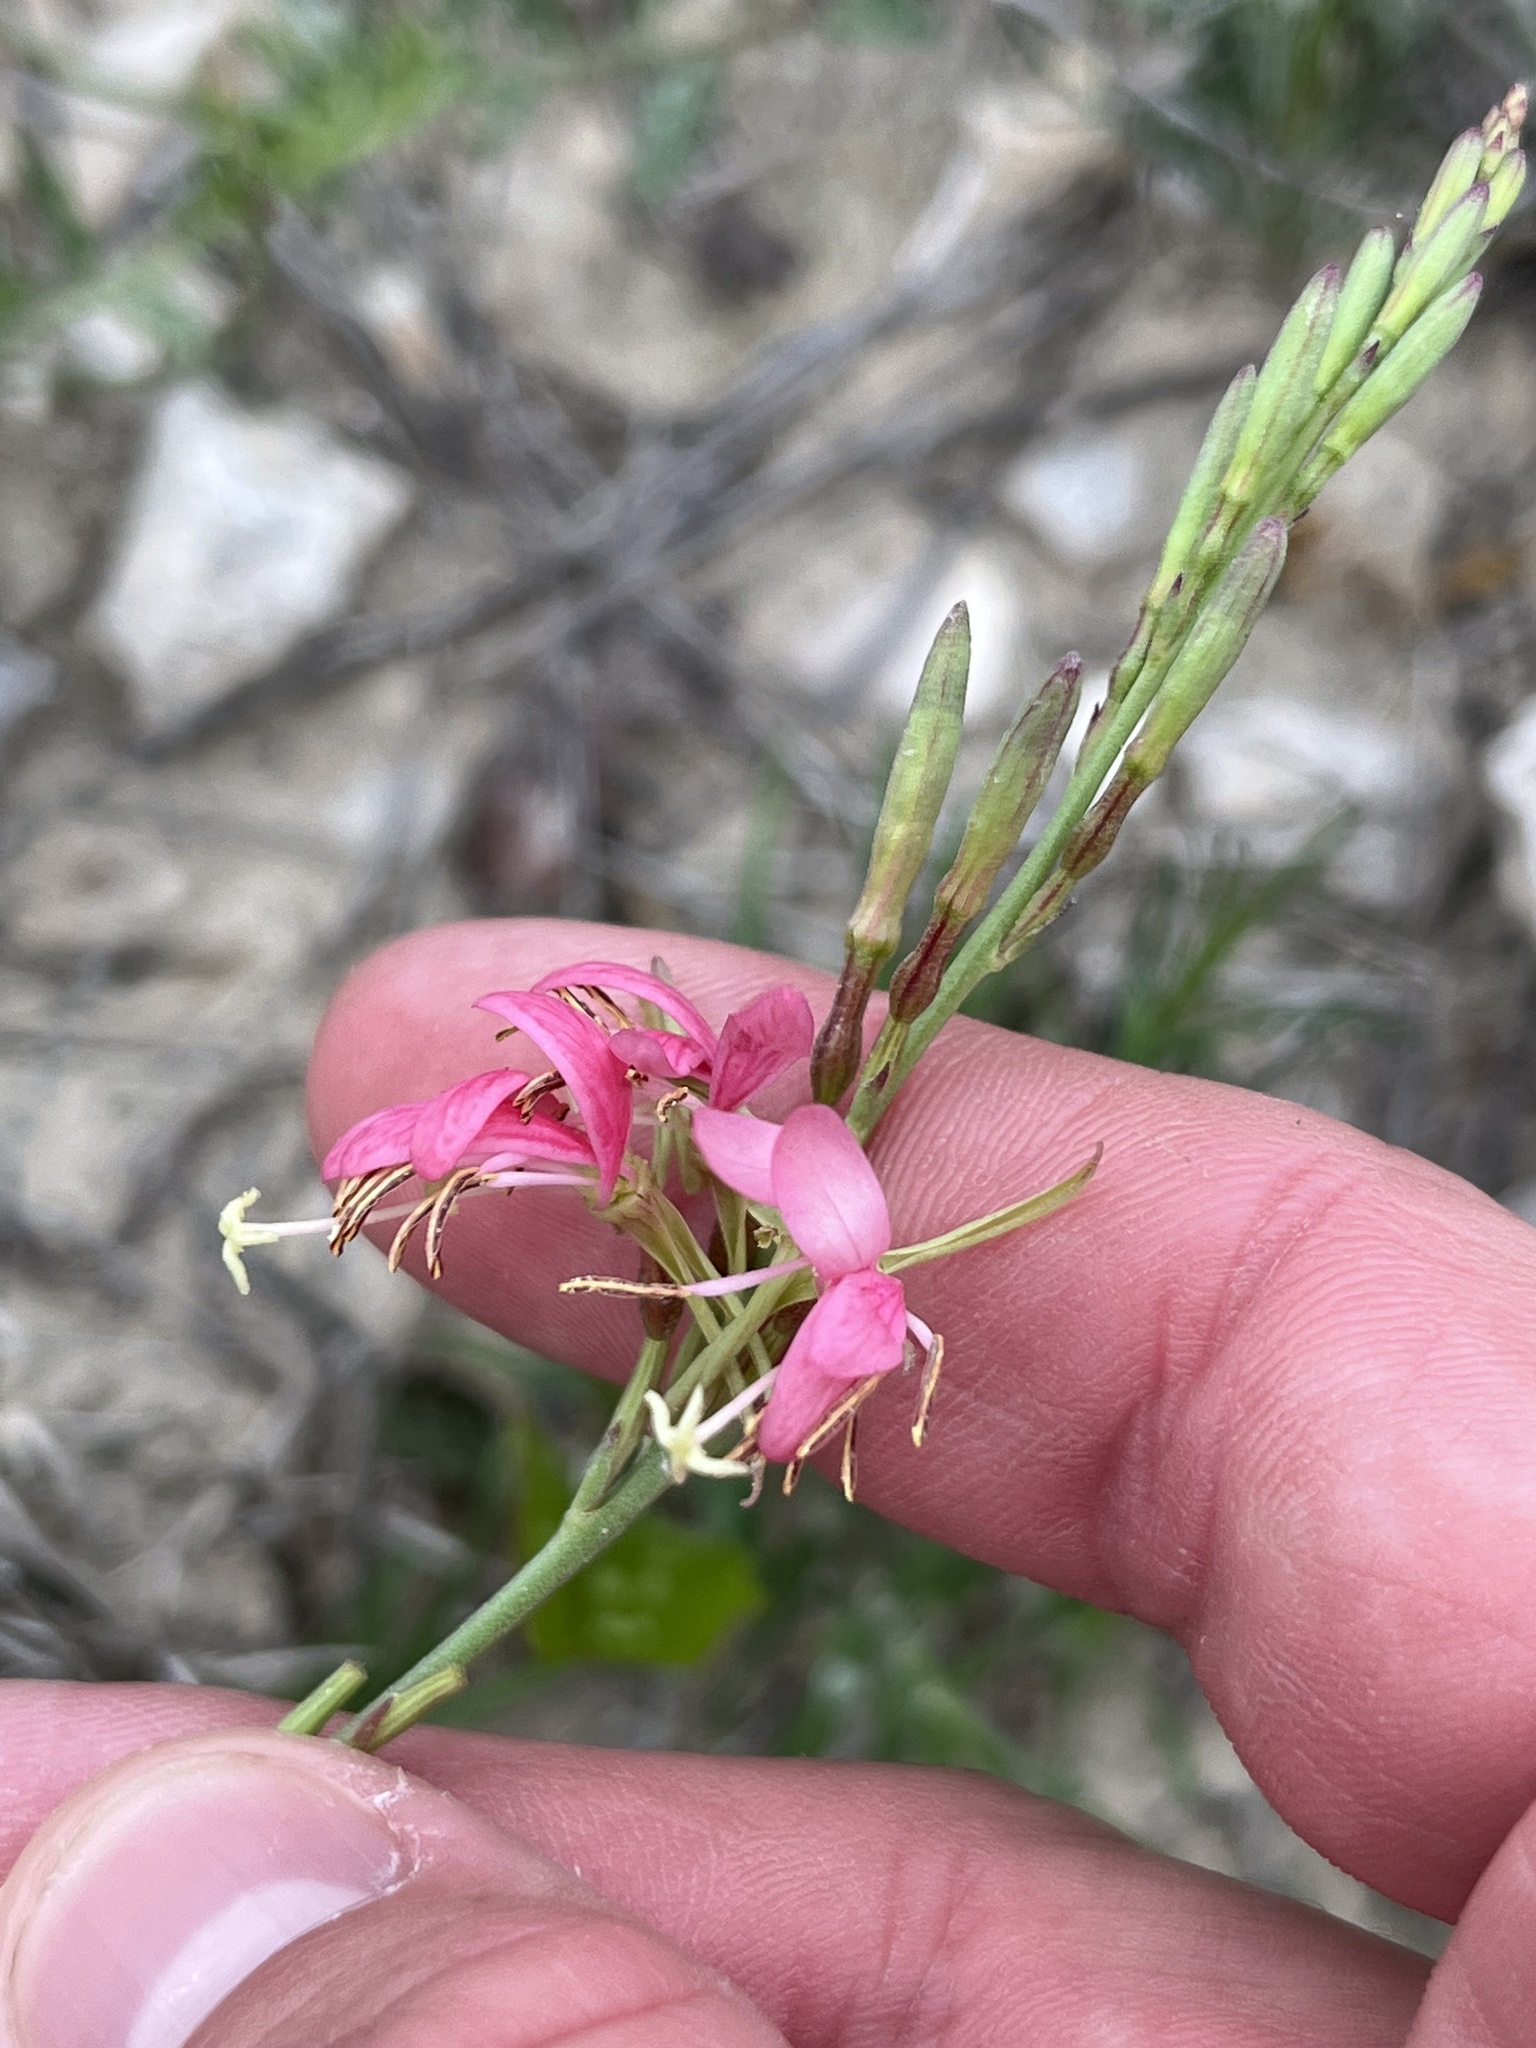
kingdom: Plantae
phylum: Tracheophyta
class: Magnoliopsida
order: Myrtales
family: Onagraceae
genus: Oenothera
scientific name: Oenothera suffulta
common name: Kisses
